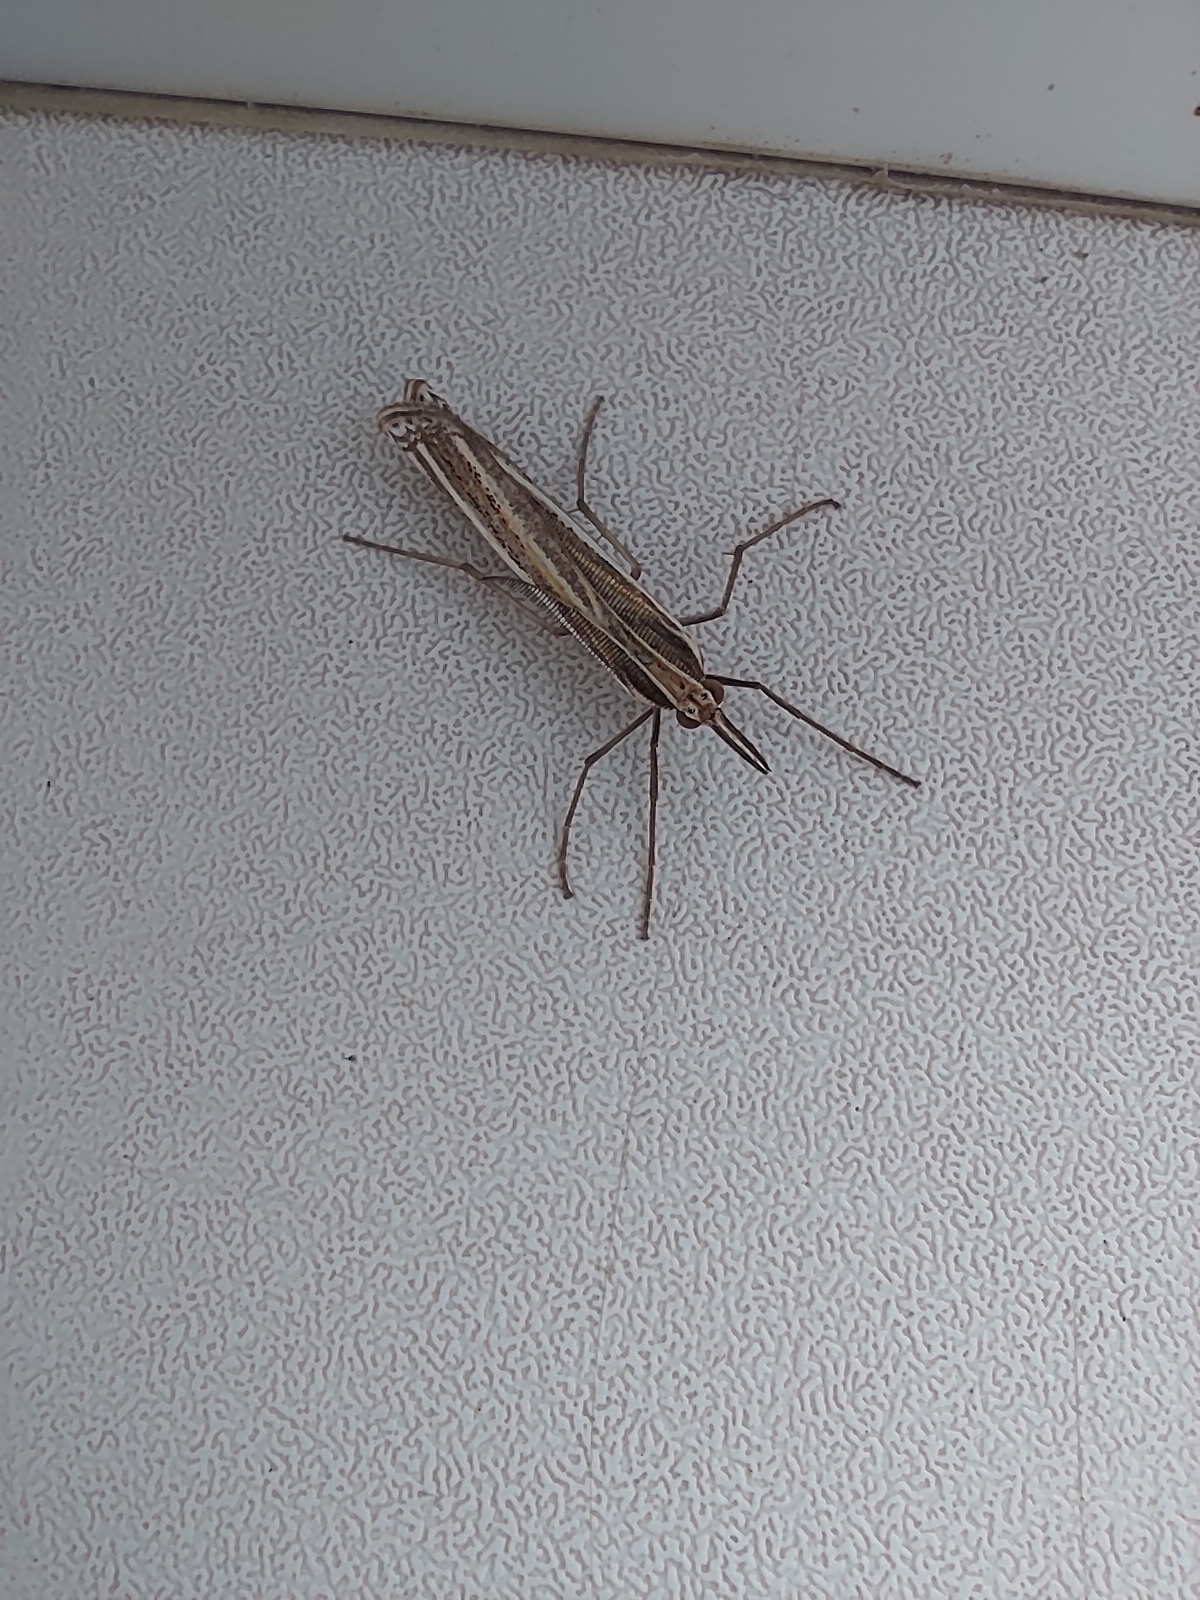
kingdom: Animalia
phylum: Arthropoda
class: Insecta
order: Lepidoptera
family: Crambidae
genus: Ancylolomia
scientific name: Ancylolomia palpella
